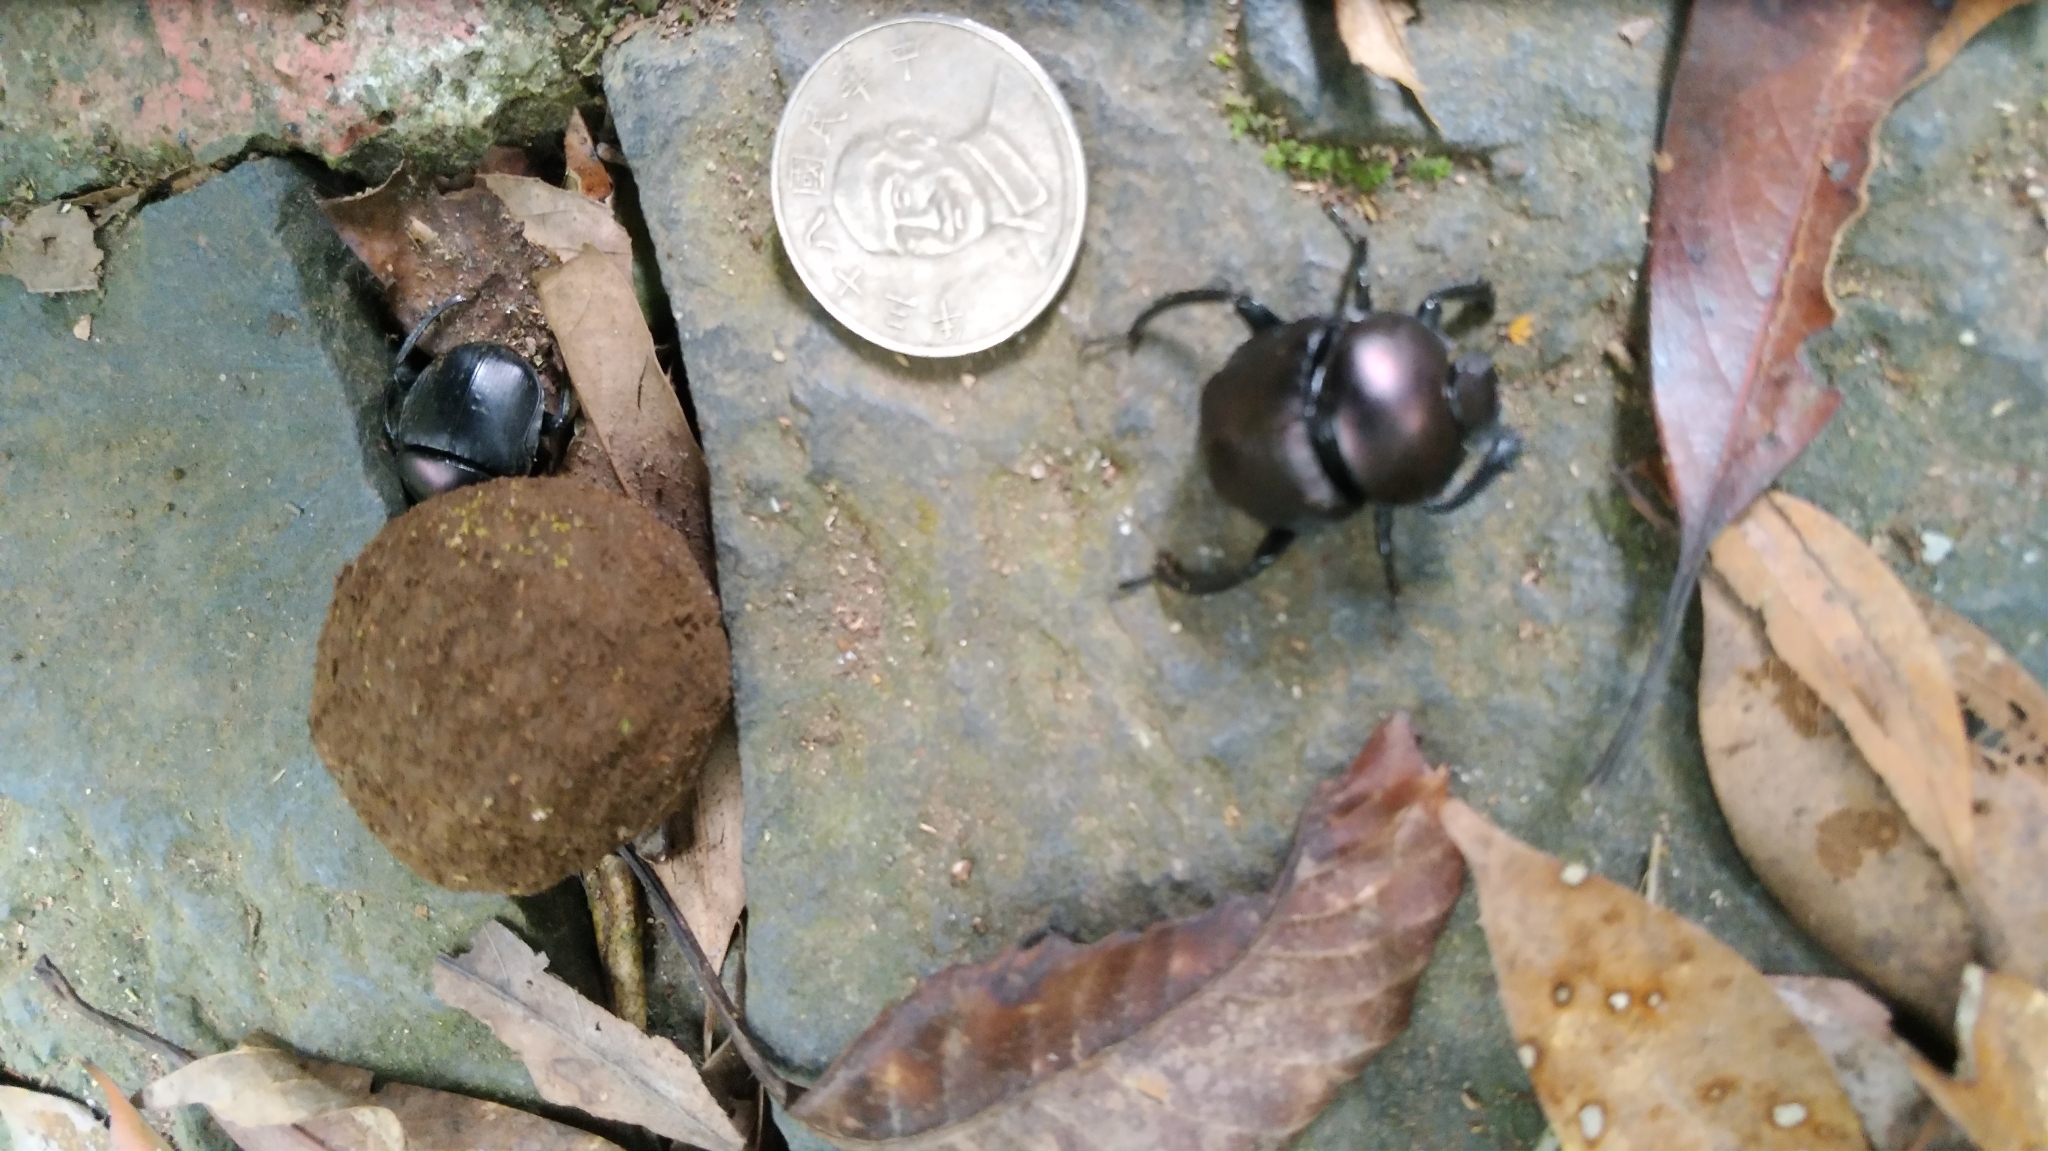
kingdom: Animalia
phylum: Arthropoda
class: Insecta
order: Coleoptera
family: Scarabaeidae
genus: Paragymnopleurus
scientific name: Paragymnopleurus ambiguus
